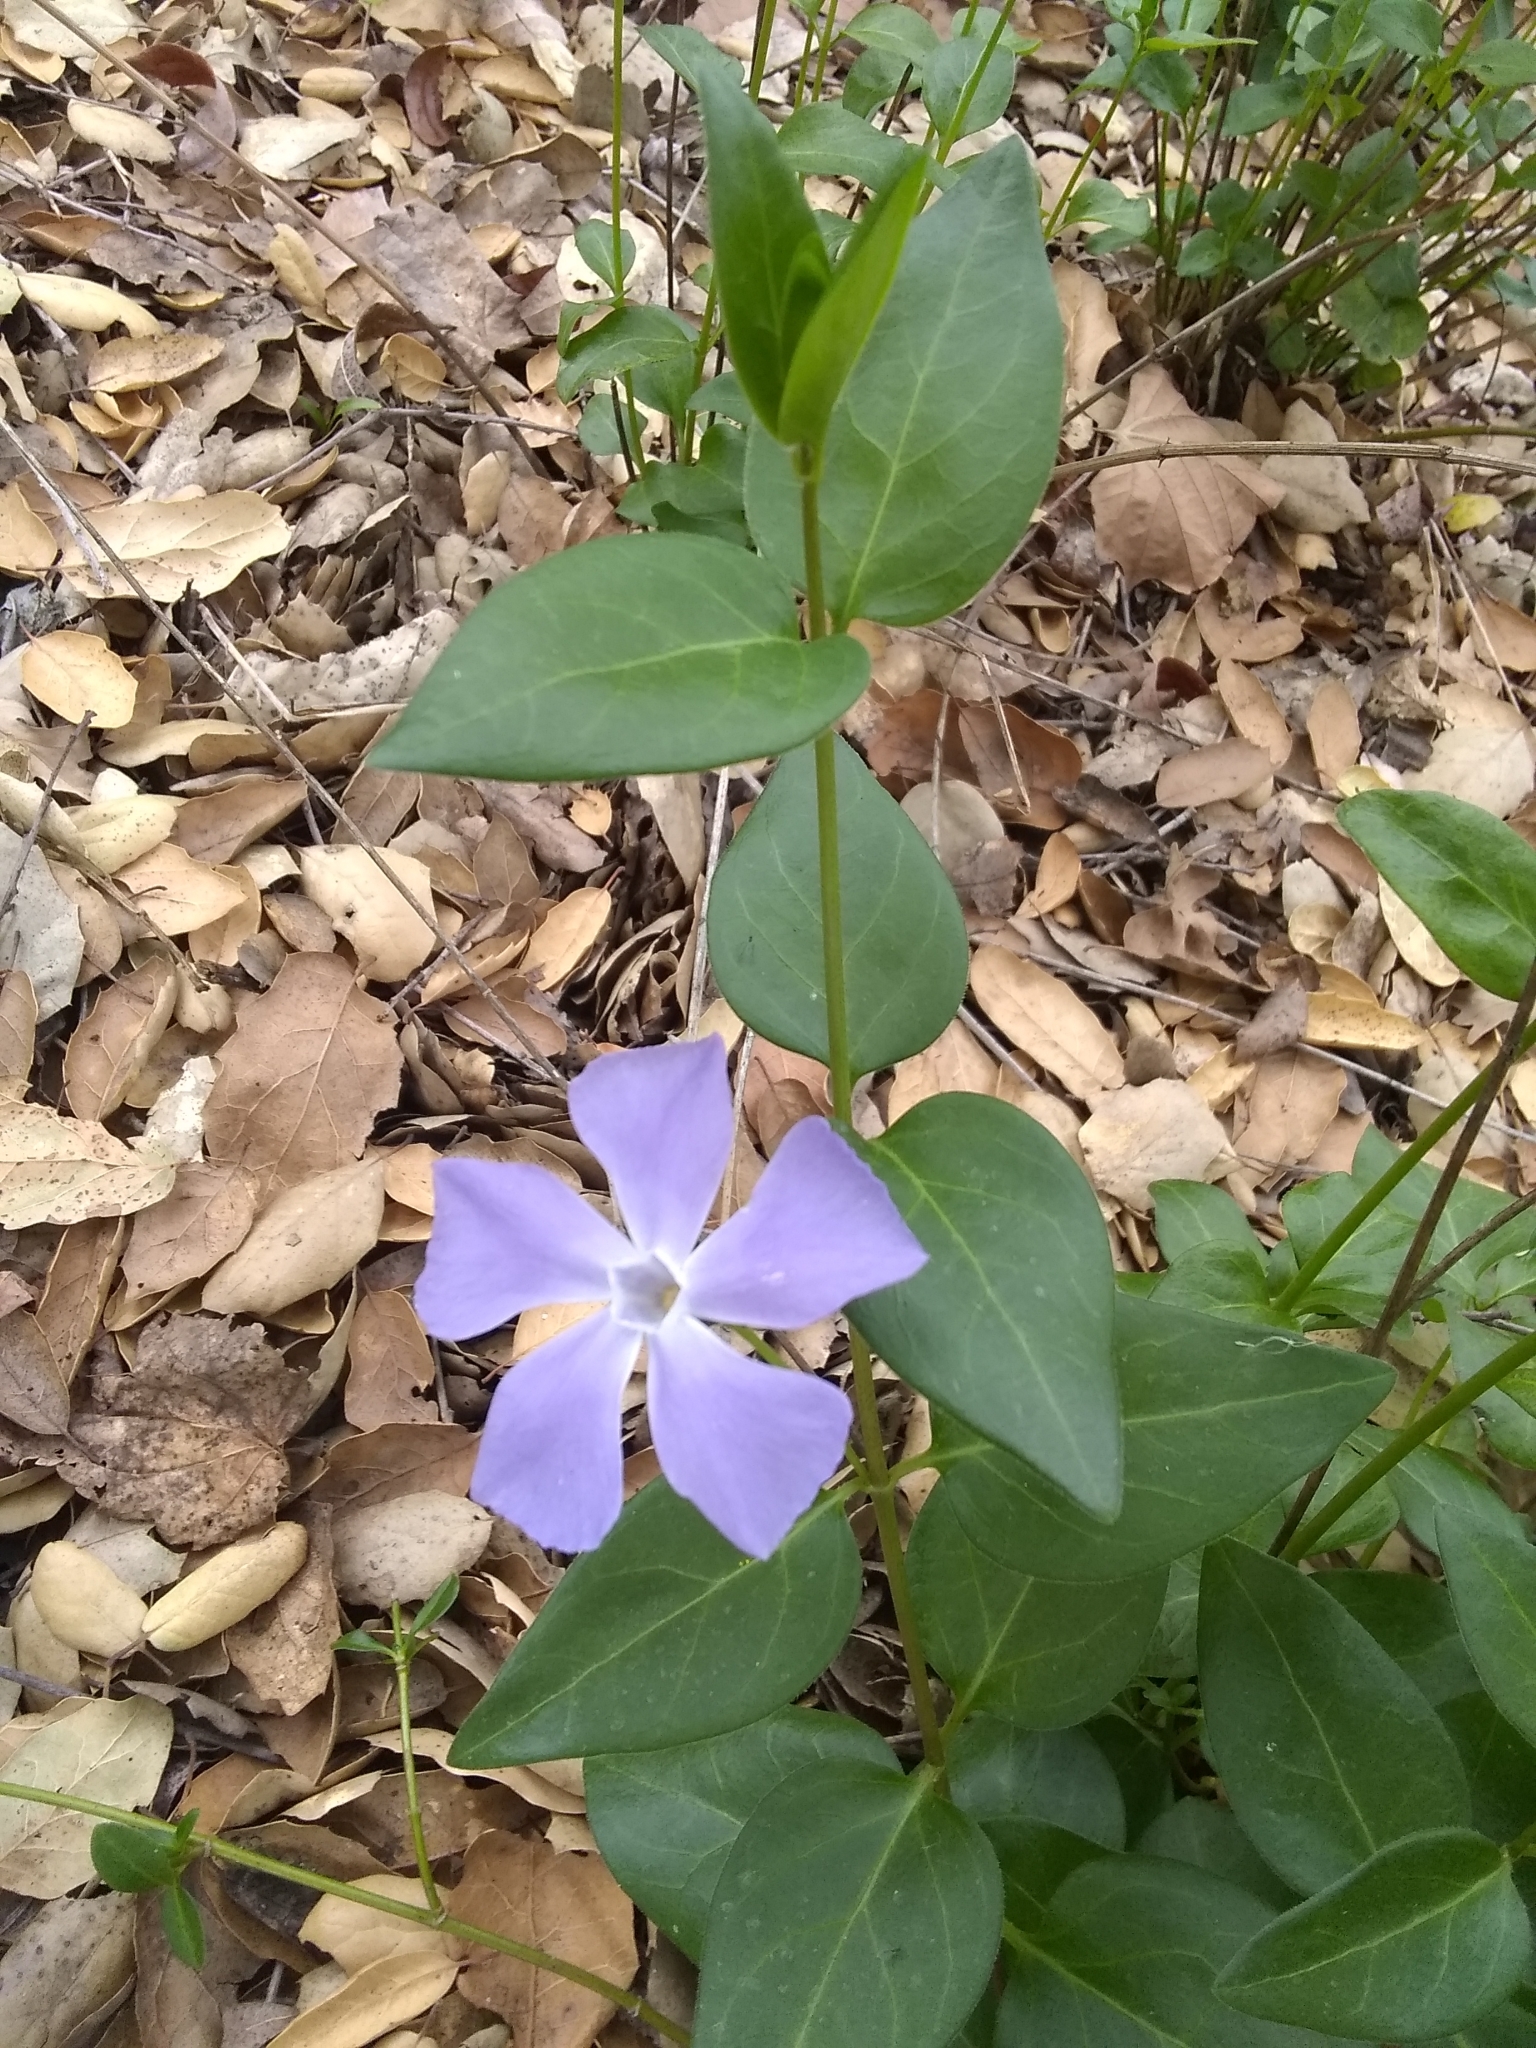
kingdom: Plantae
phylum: Tracheophyta
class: Magnoliopsida
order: Gentianales
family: Apocynaceae
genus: Vinca
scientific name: Vinca major
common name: Greater periwinkle
